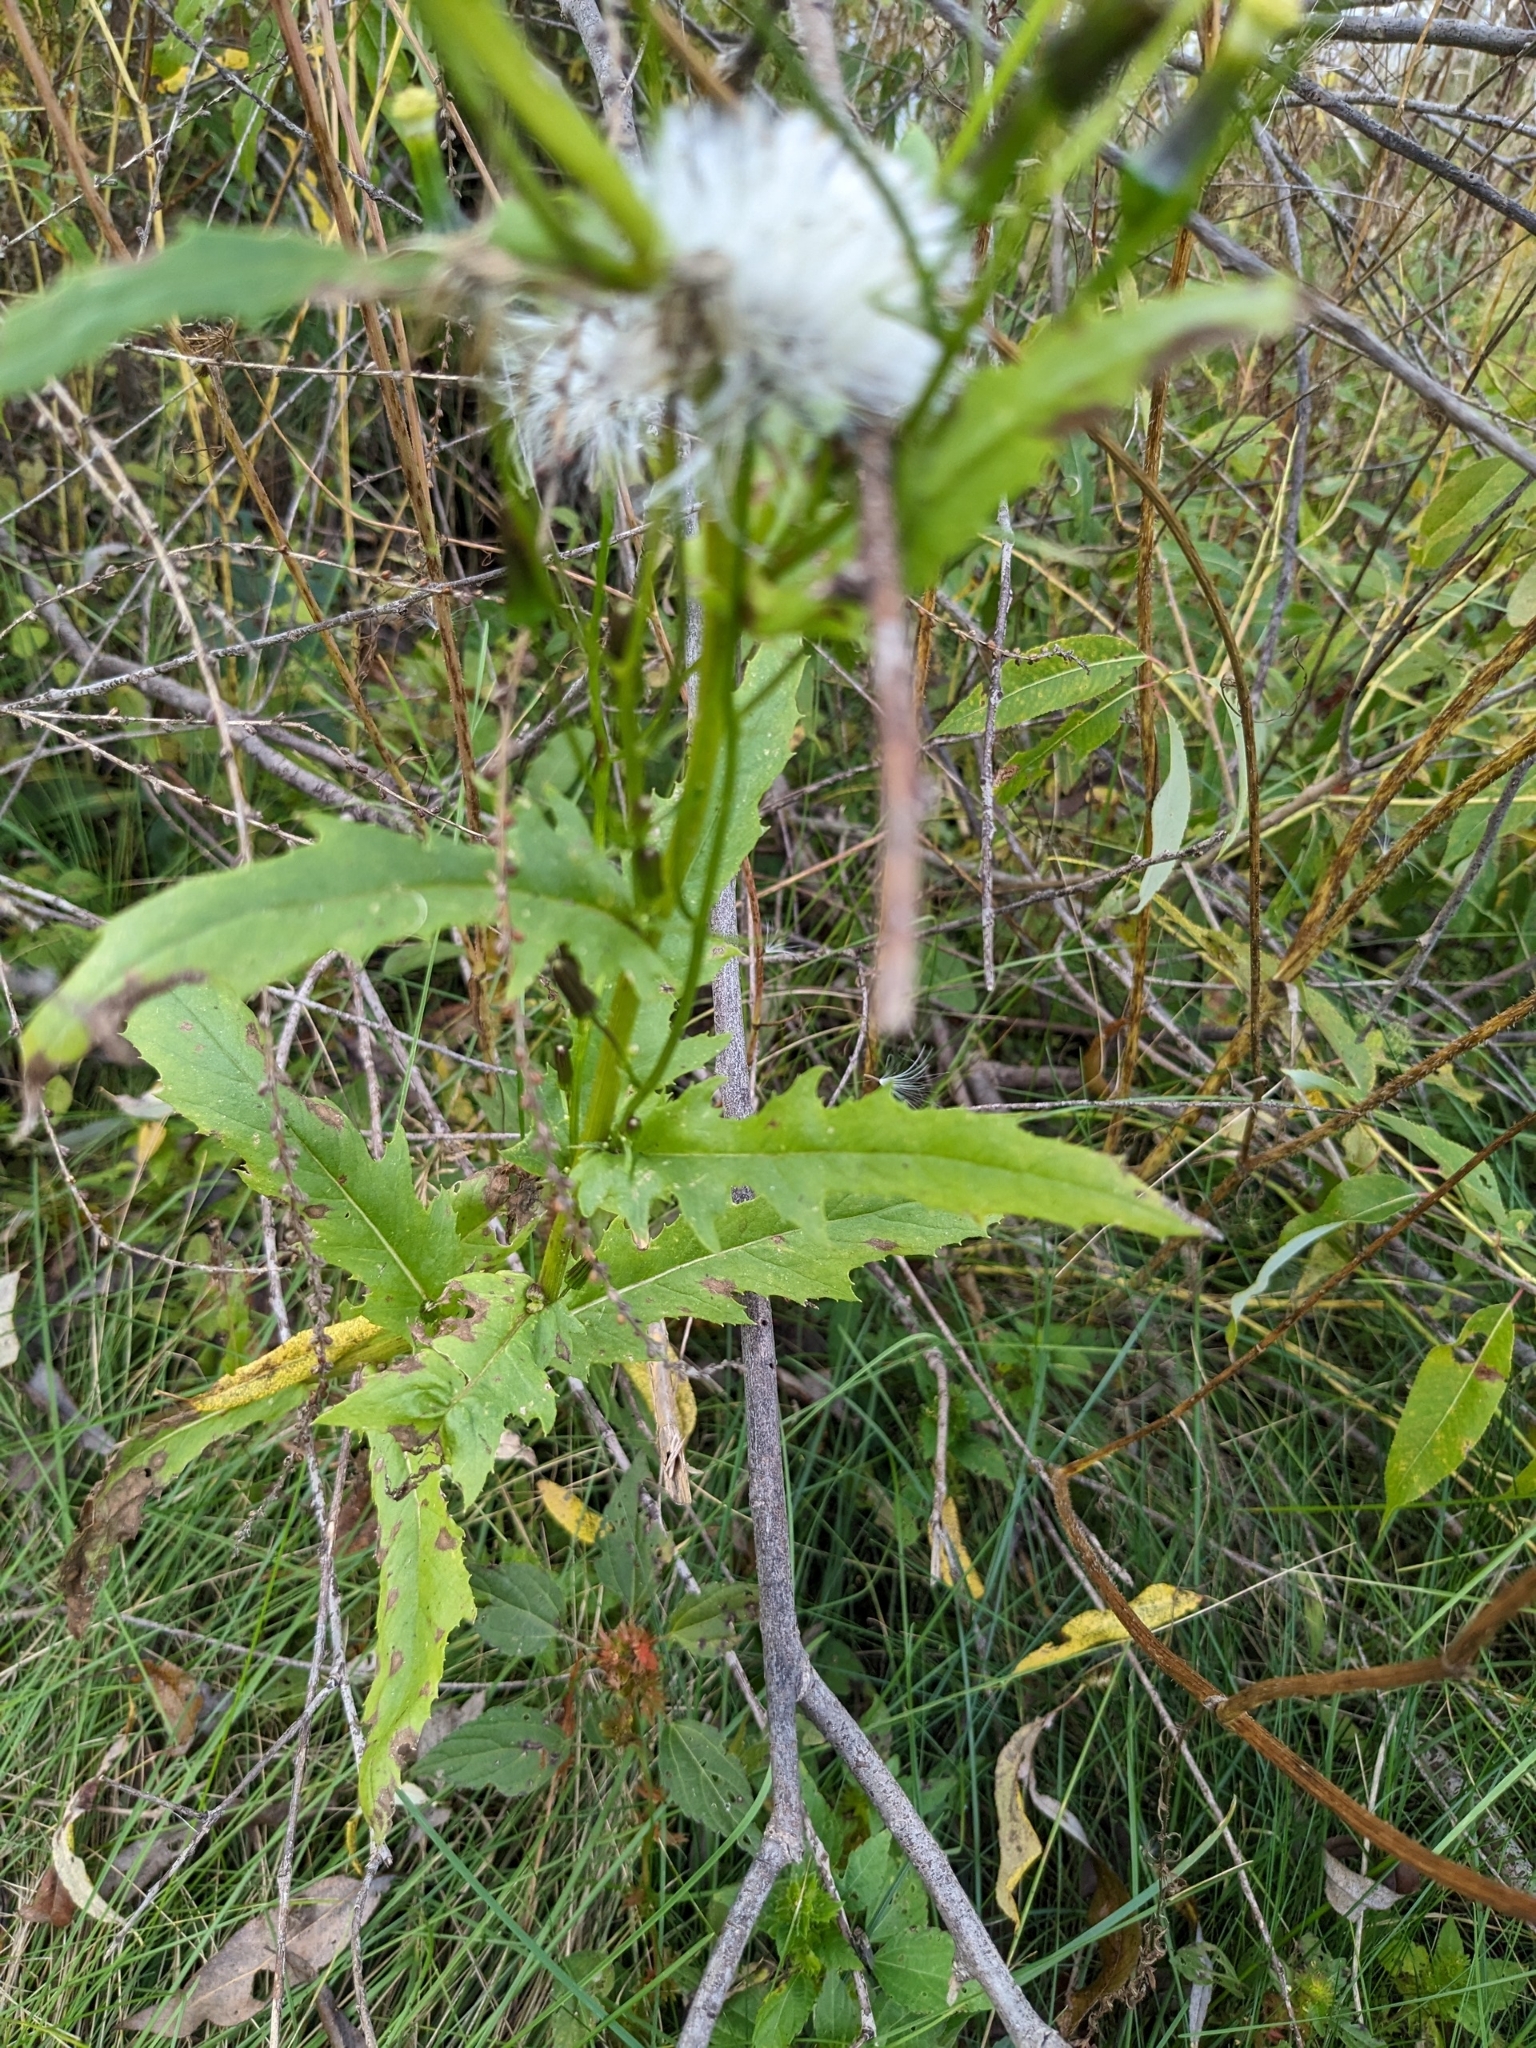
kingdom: Plantae
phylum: Tracheophyta
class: Magnoliopsida
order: Asterales
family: Asteraceae
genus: Erechtites
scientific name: Erechtites hieraciifolius
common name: American burnweed
